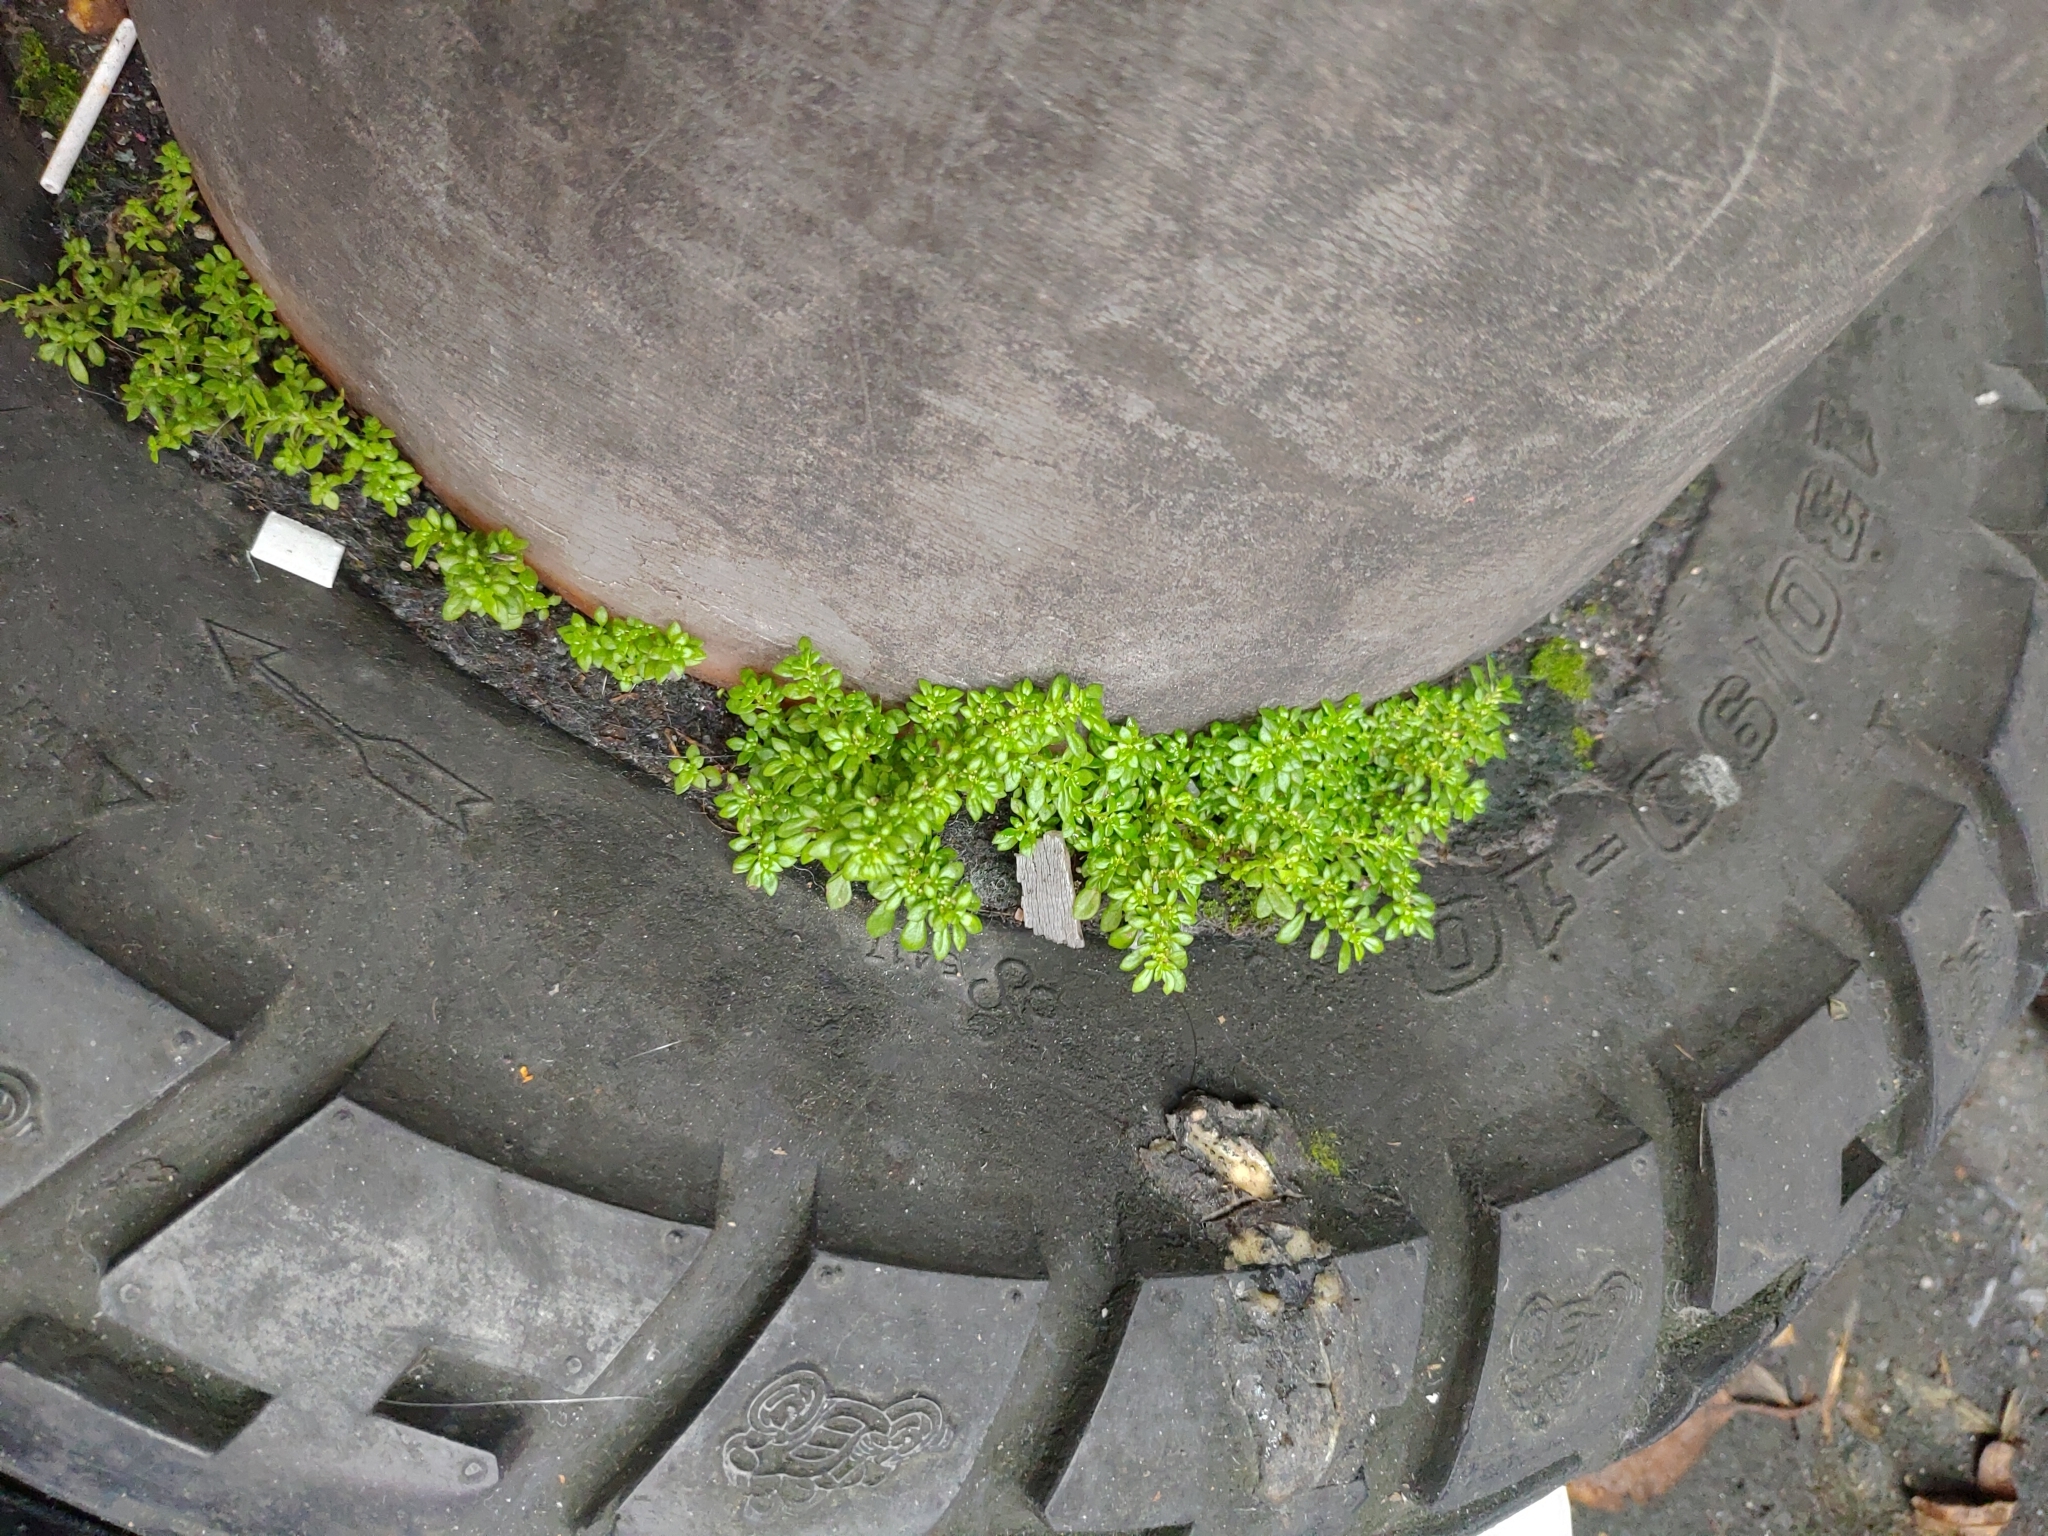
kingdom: Plantae
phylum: Tracheophyta
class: Magnoliopsida
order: Rosales
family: Urticaceae
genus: Pilea
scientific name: Pilea microphylla
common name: Artillery-plant
